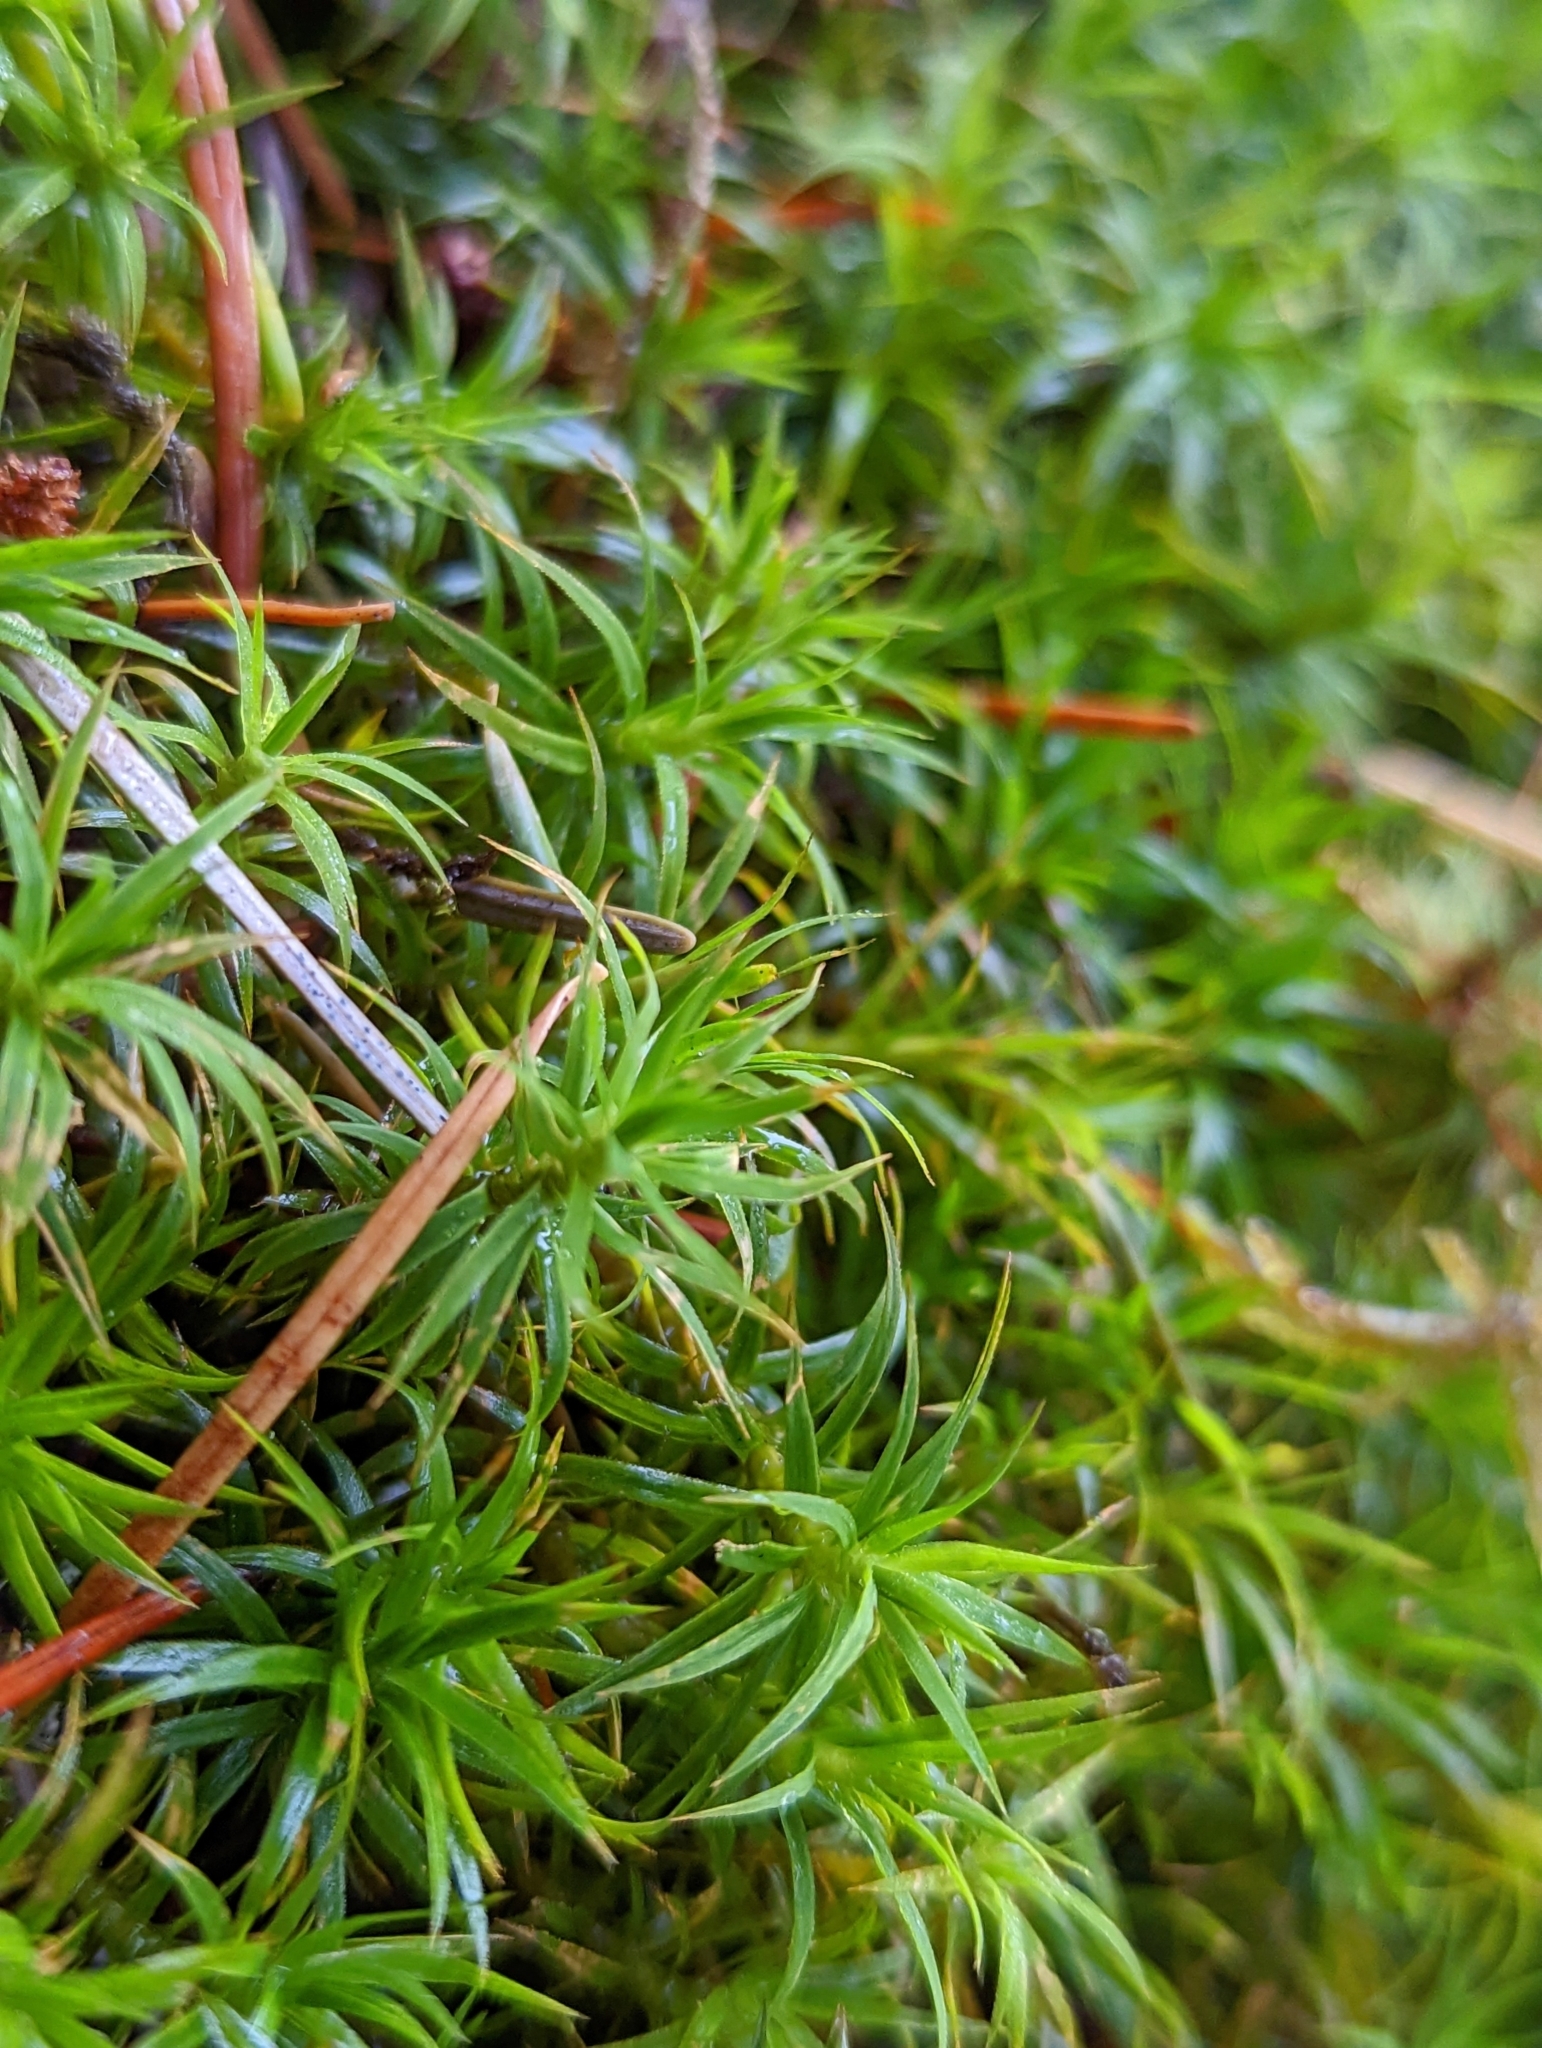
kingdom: Plantae
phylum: Bryophyta
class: Polytrichopsida
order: Polytrichales
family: Polytrichaceae
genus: Polytrichastrum
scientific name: Polytrichastrum alpinum
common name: Alpine haircap
